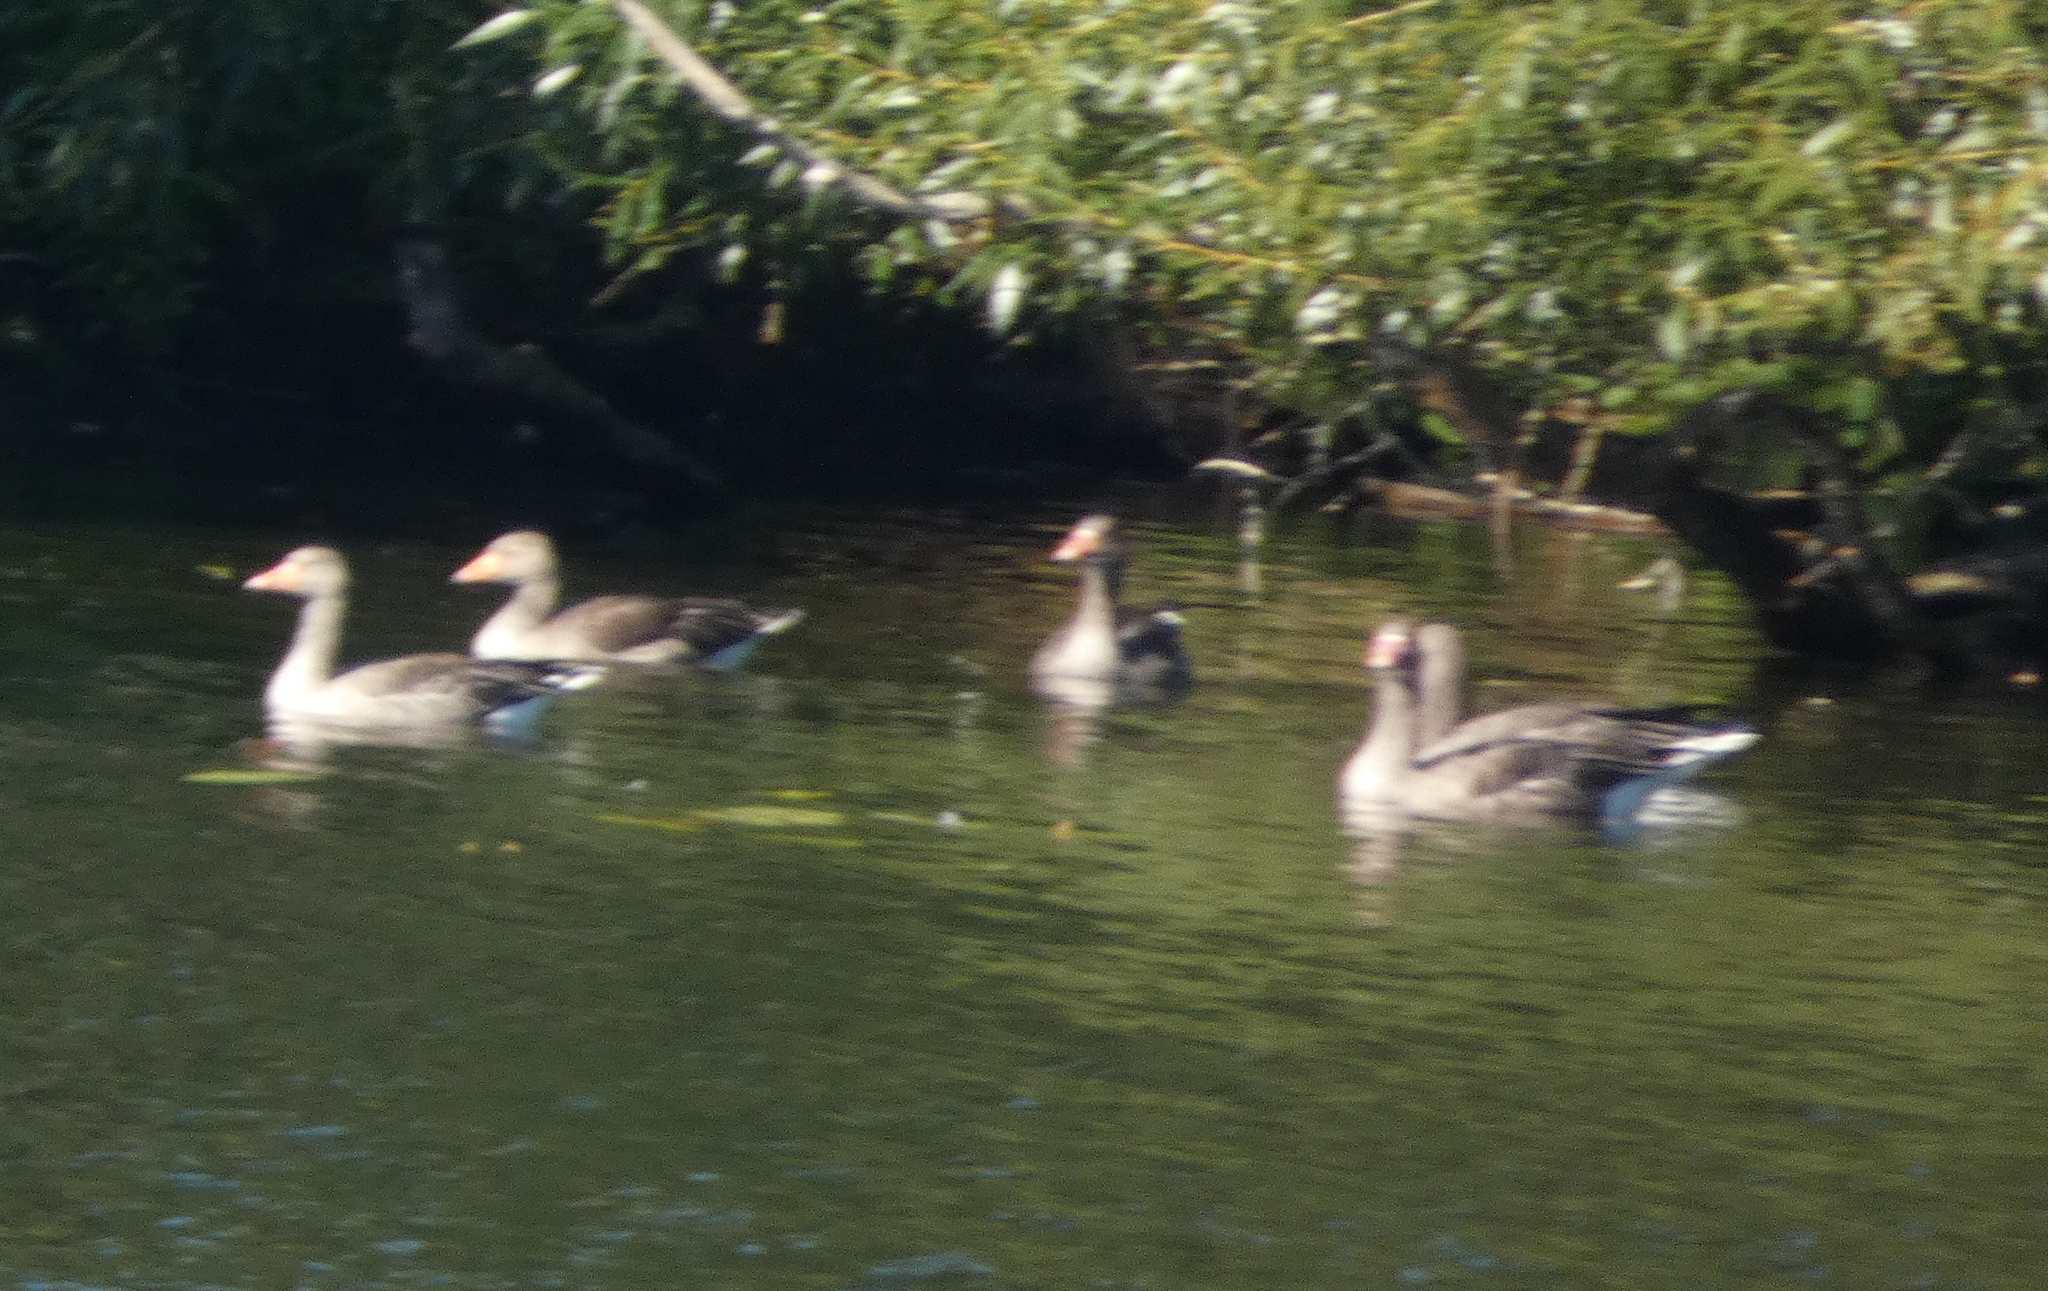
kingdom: Animalia
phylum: Chordata
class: Aves
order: Anseriformes
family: Anatidae
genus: Anser
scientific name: Anser anser
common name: Greylag goose
